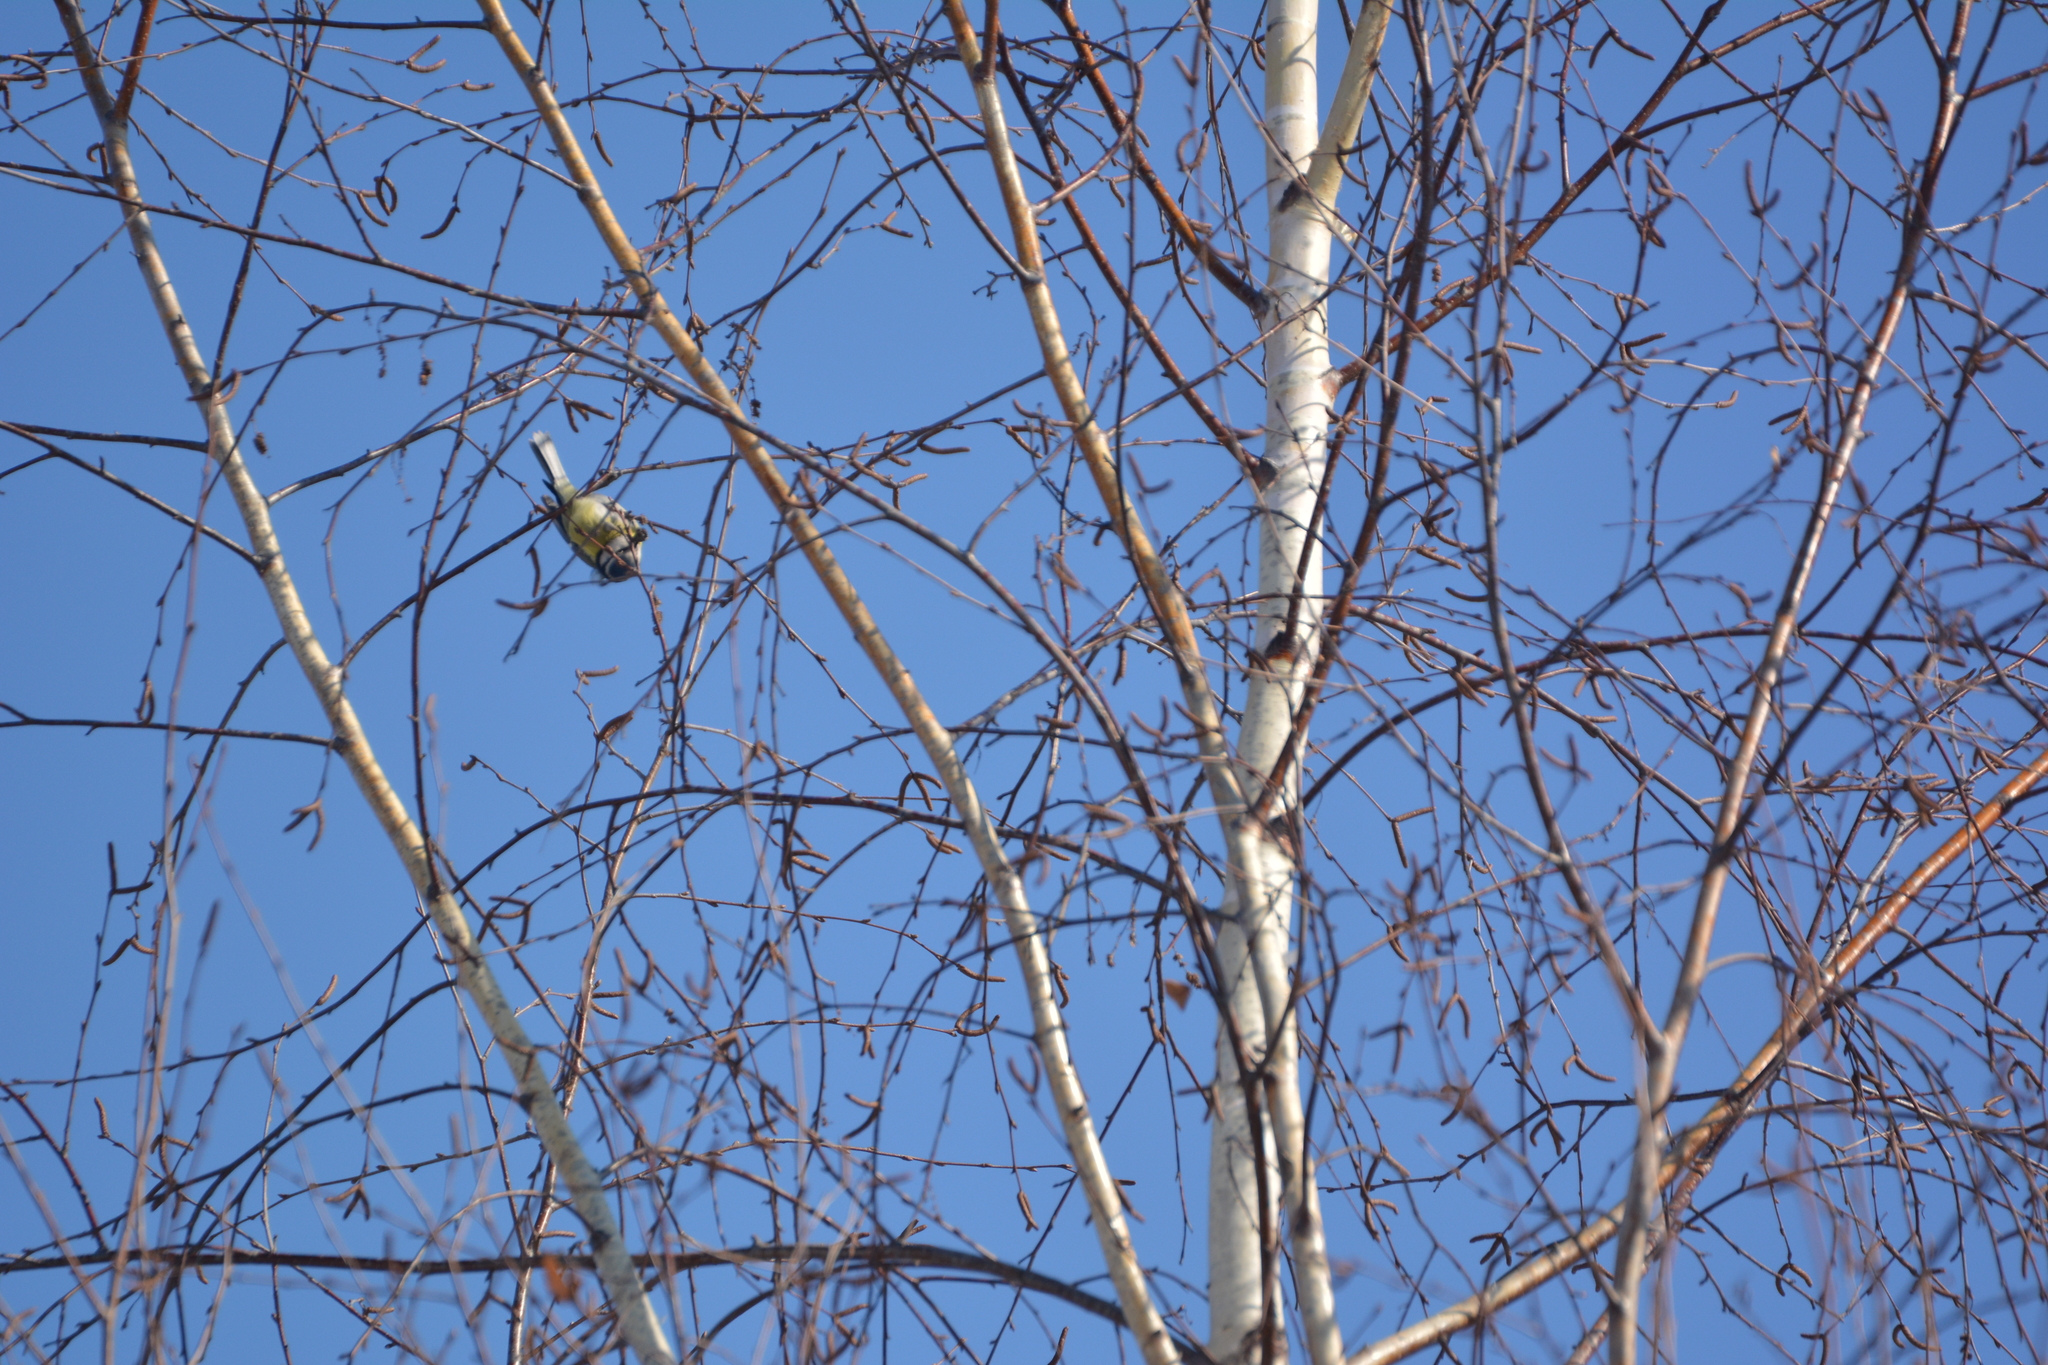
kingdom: Animalia
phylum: Chordata
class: Aves
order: Passeriformes
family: Paridae
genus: Cyanistes
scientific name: Cyanistes caeruleus
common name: Eurasian blue tit
